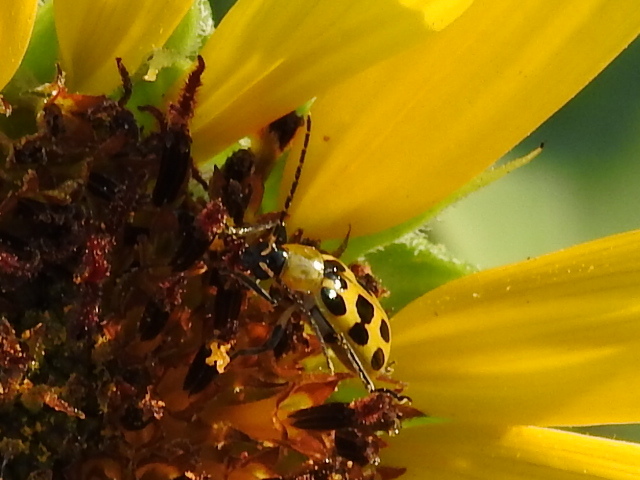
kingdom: Animalia
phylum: Arthropoda
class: Insecta
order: Coleoptera
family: Chrysomelidae
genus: Diabrotica
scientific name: Diabrotica undecimpunctata
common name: Spotted cucumber beetle
